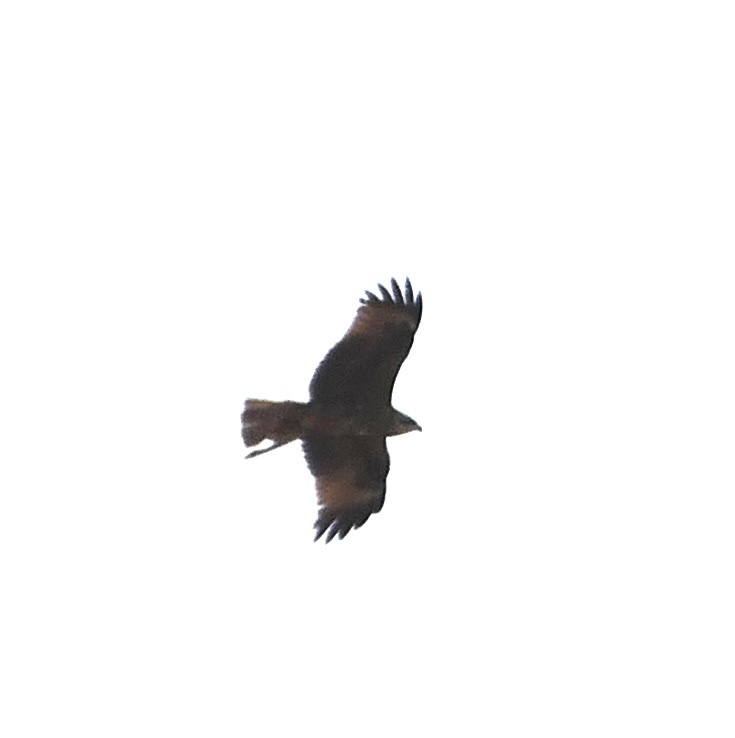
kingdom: Animalia
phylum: Chordata
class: Aves
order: Accipitriformes
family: Accipitridae
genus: Milvus
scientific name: Milvus migrans
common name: Black kite
